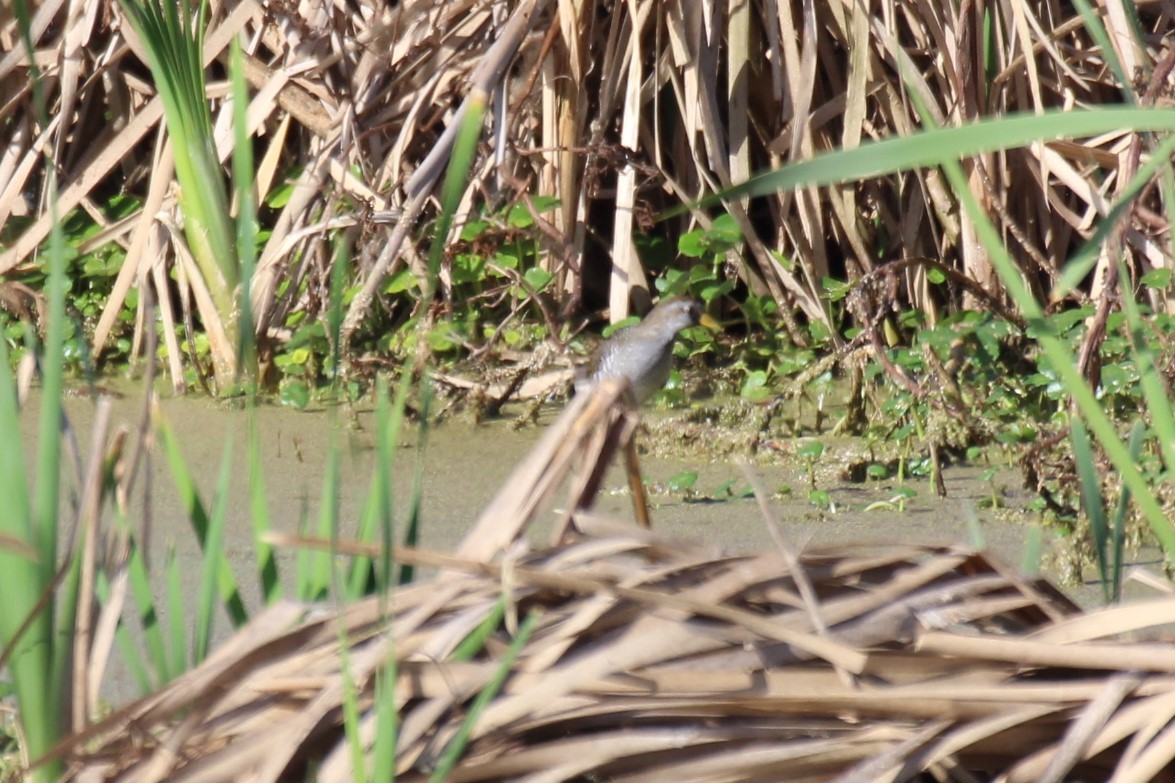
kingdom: Animalia
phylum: Chordata
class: Aves
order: Gruiformes
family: Rallidae
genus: Porzana
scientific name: Porzana carolina
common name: Sora
